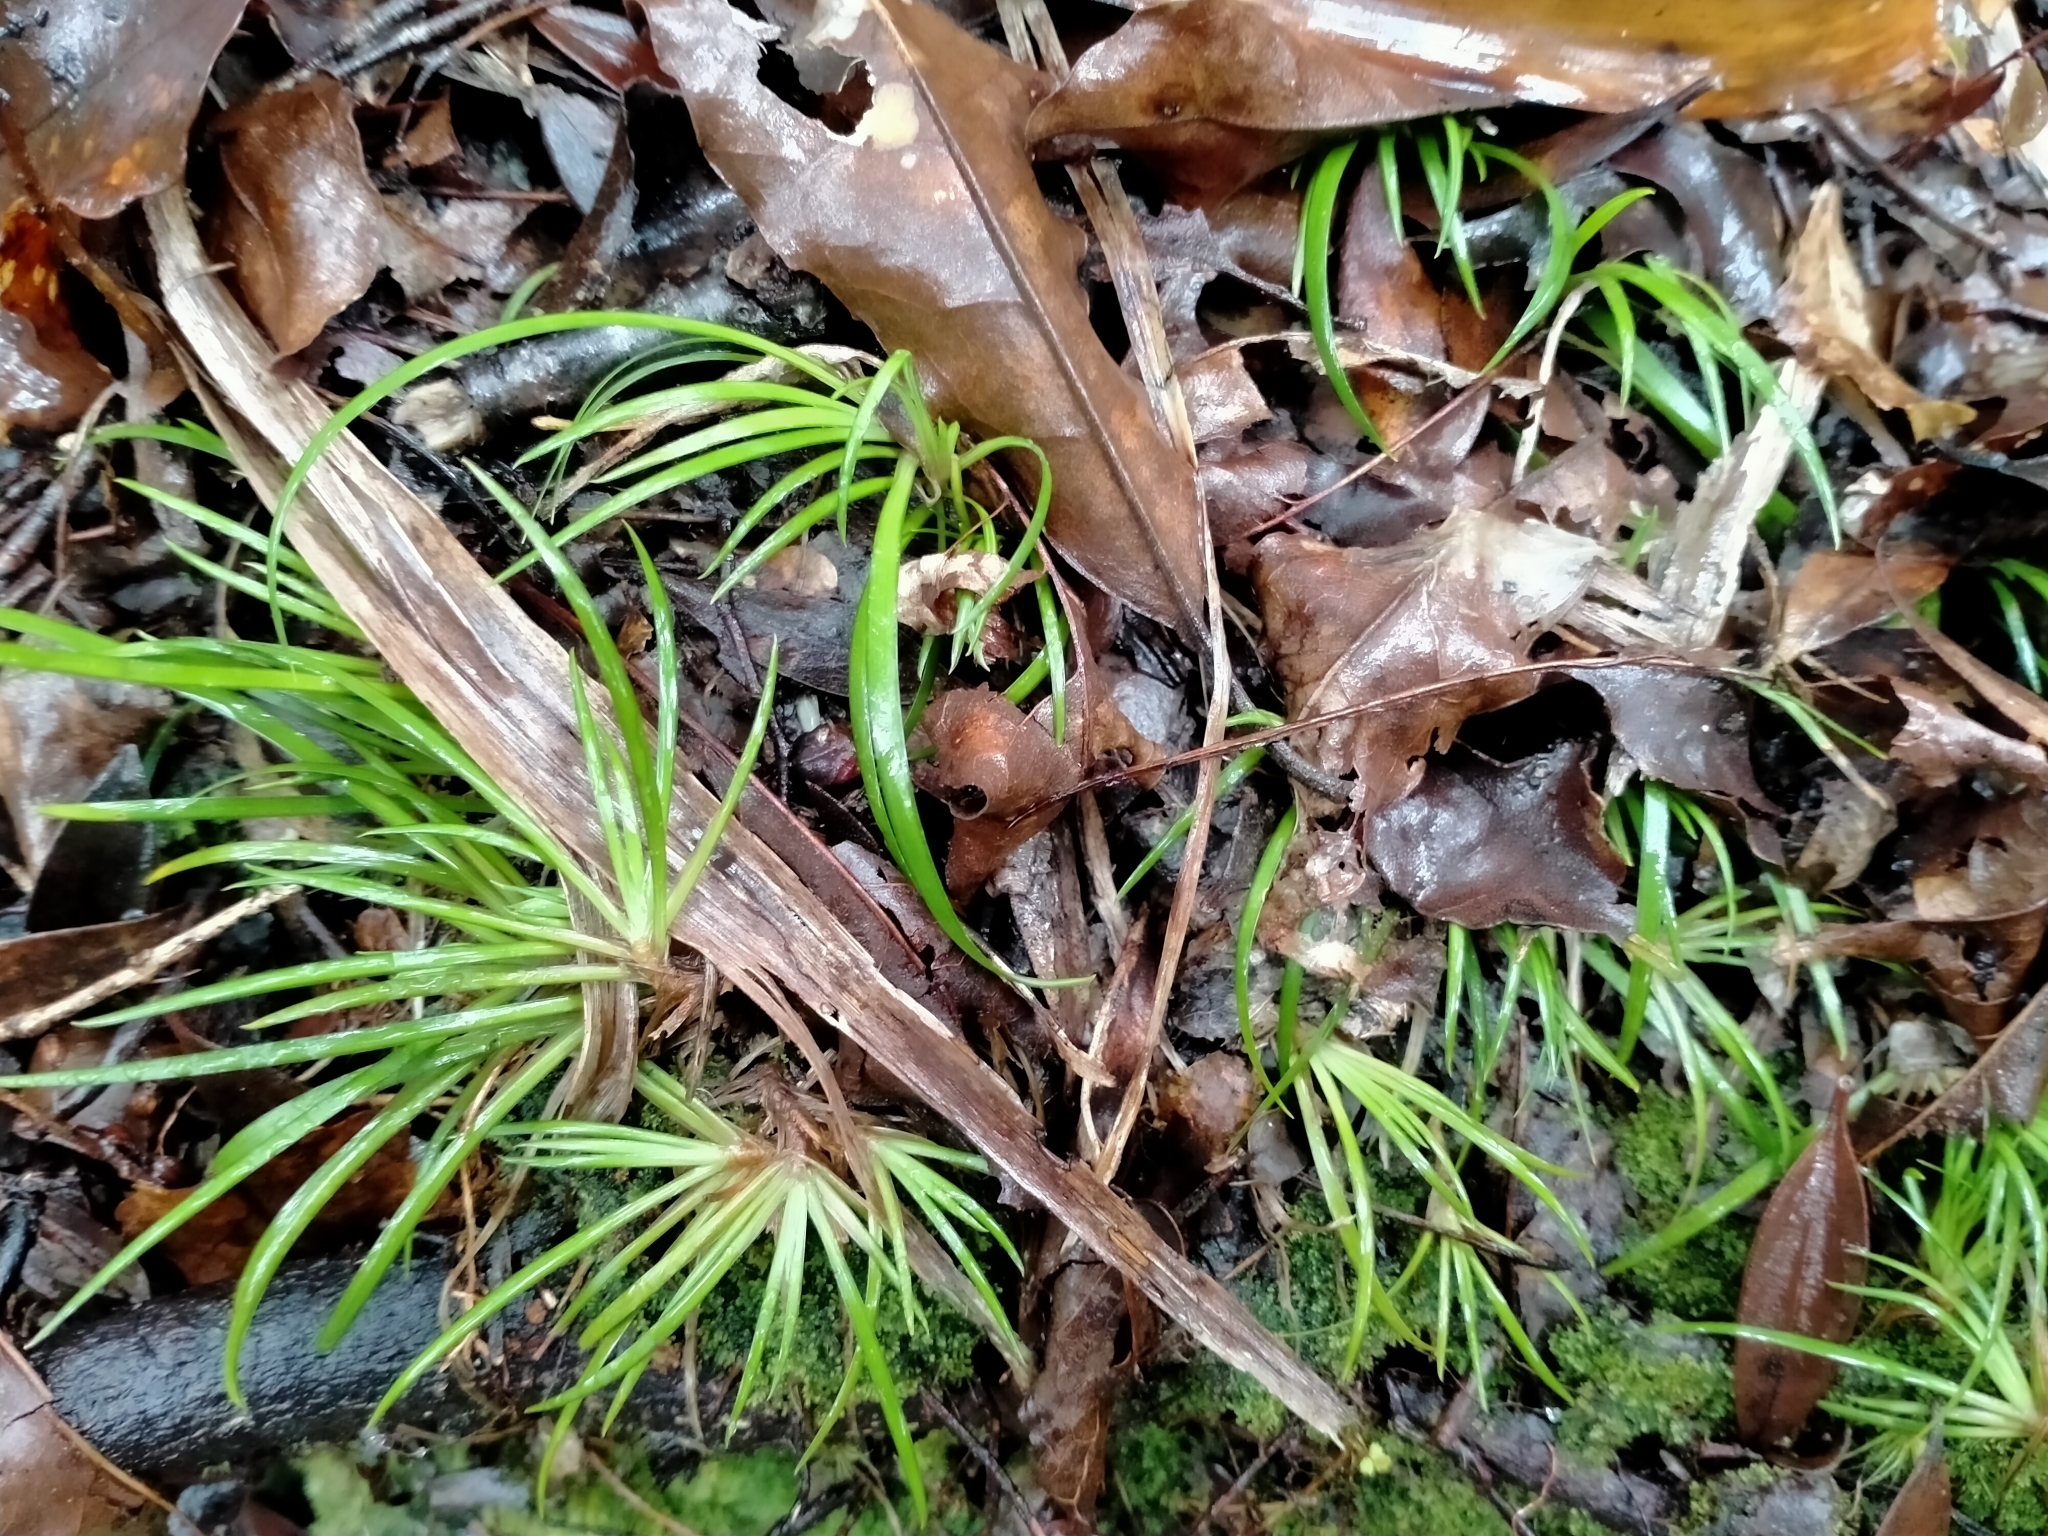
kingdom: Plantae
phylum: Tracheophyta
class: Liliopsida
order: Asparagales
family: Iridaceae
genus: Libertia
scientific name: Libertia micrantha
